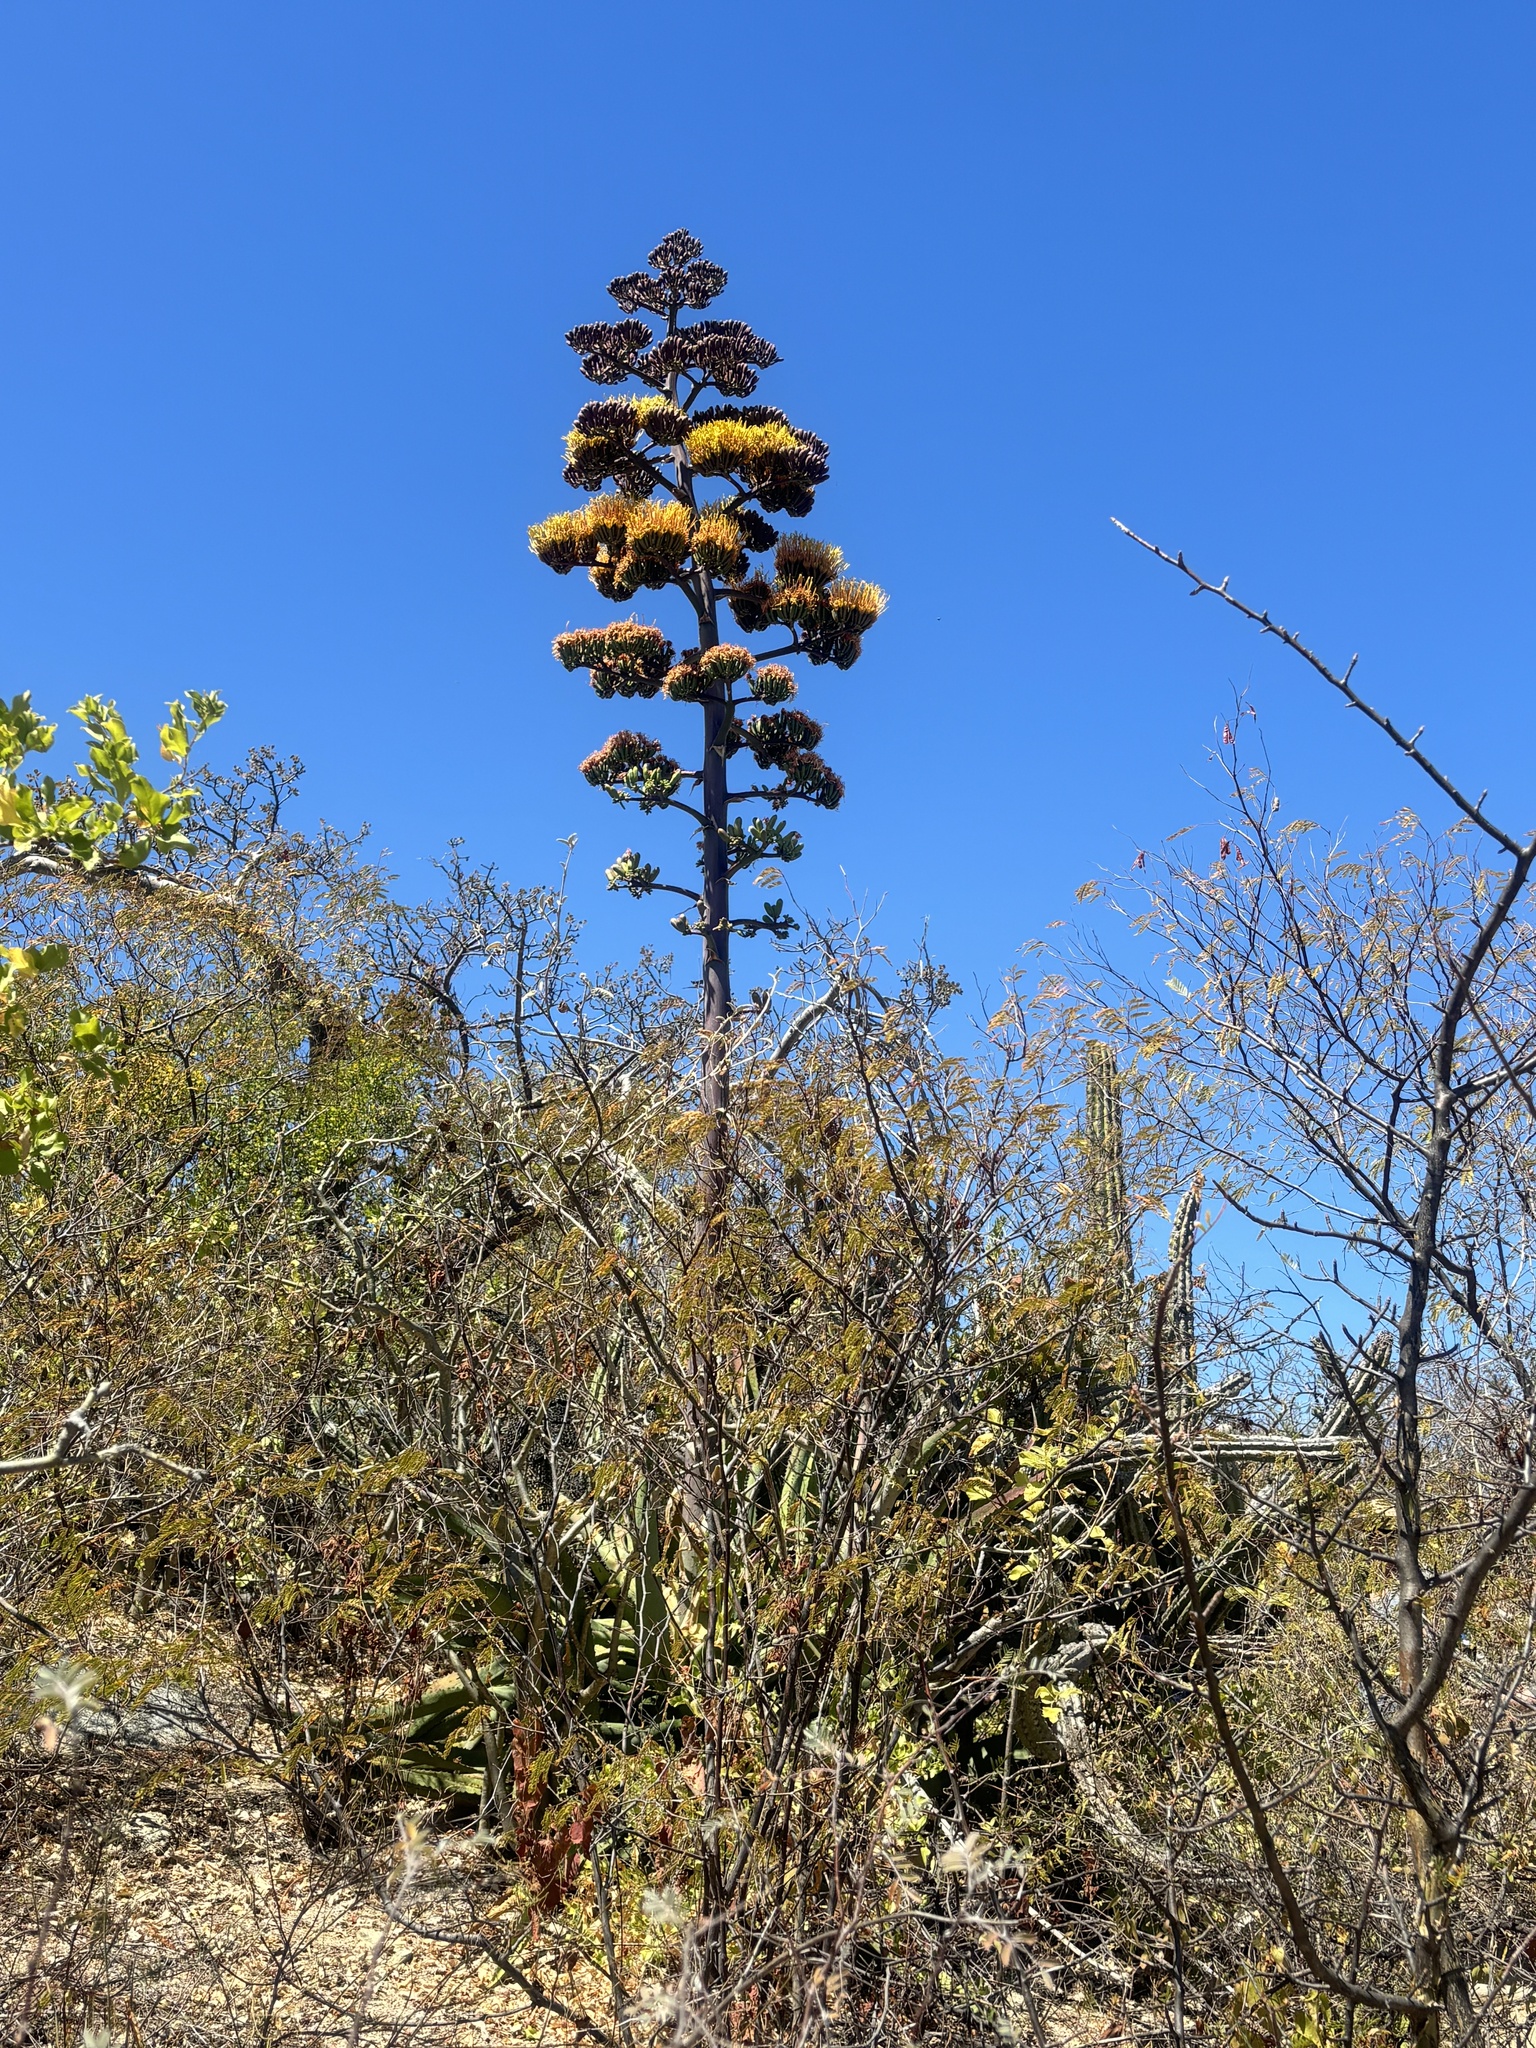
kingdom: Plantae
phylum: Tracheophyta
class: Liliopsida
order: Asparagales
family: Asparagaceae
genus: Agave
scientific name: Agave aurea
